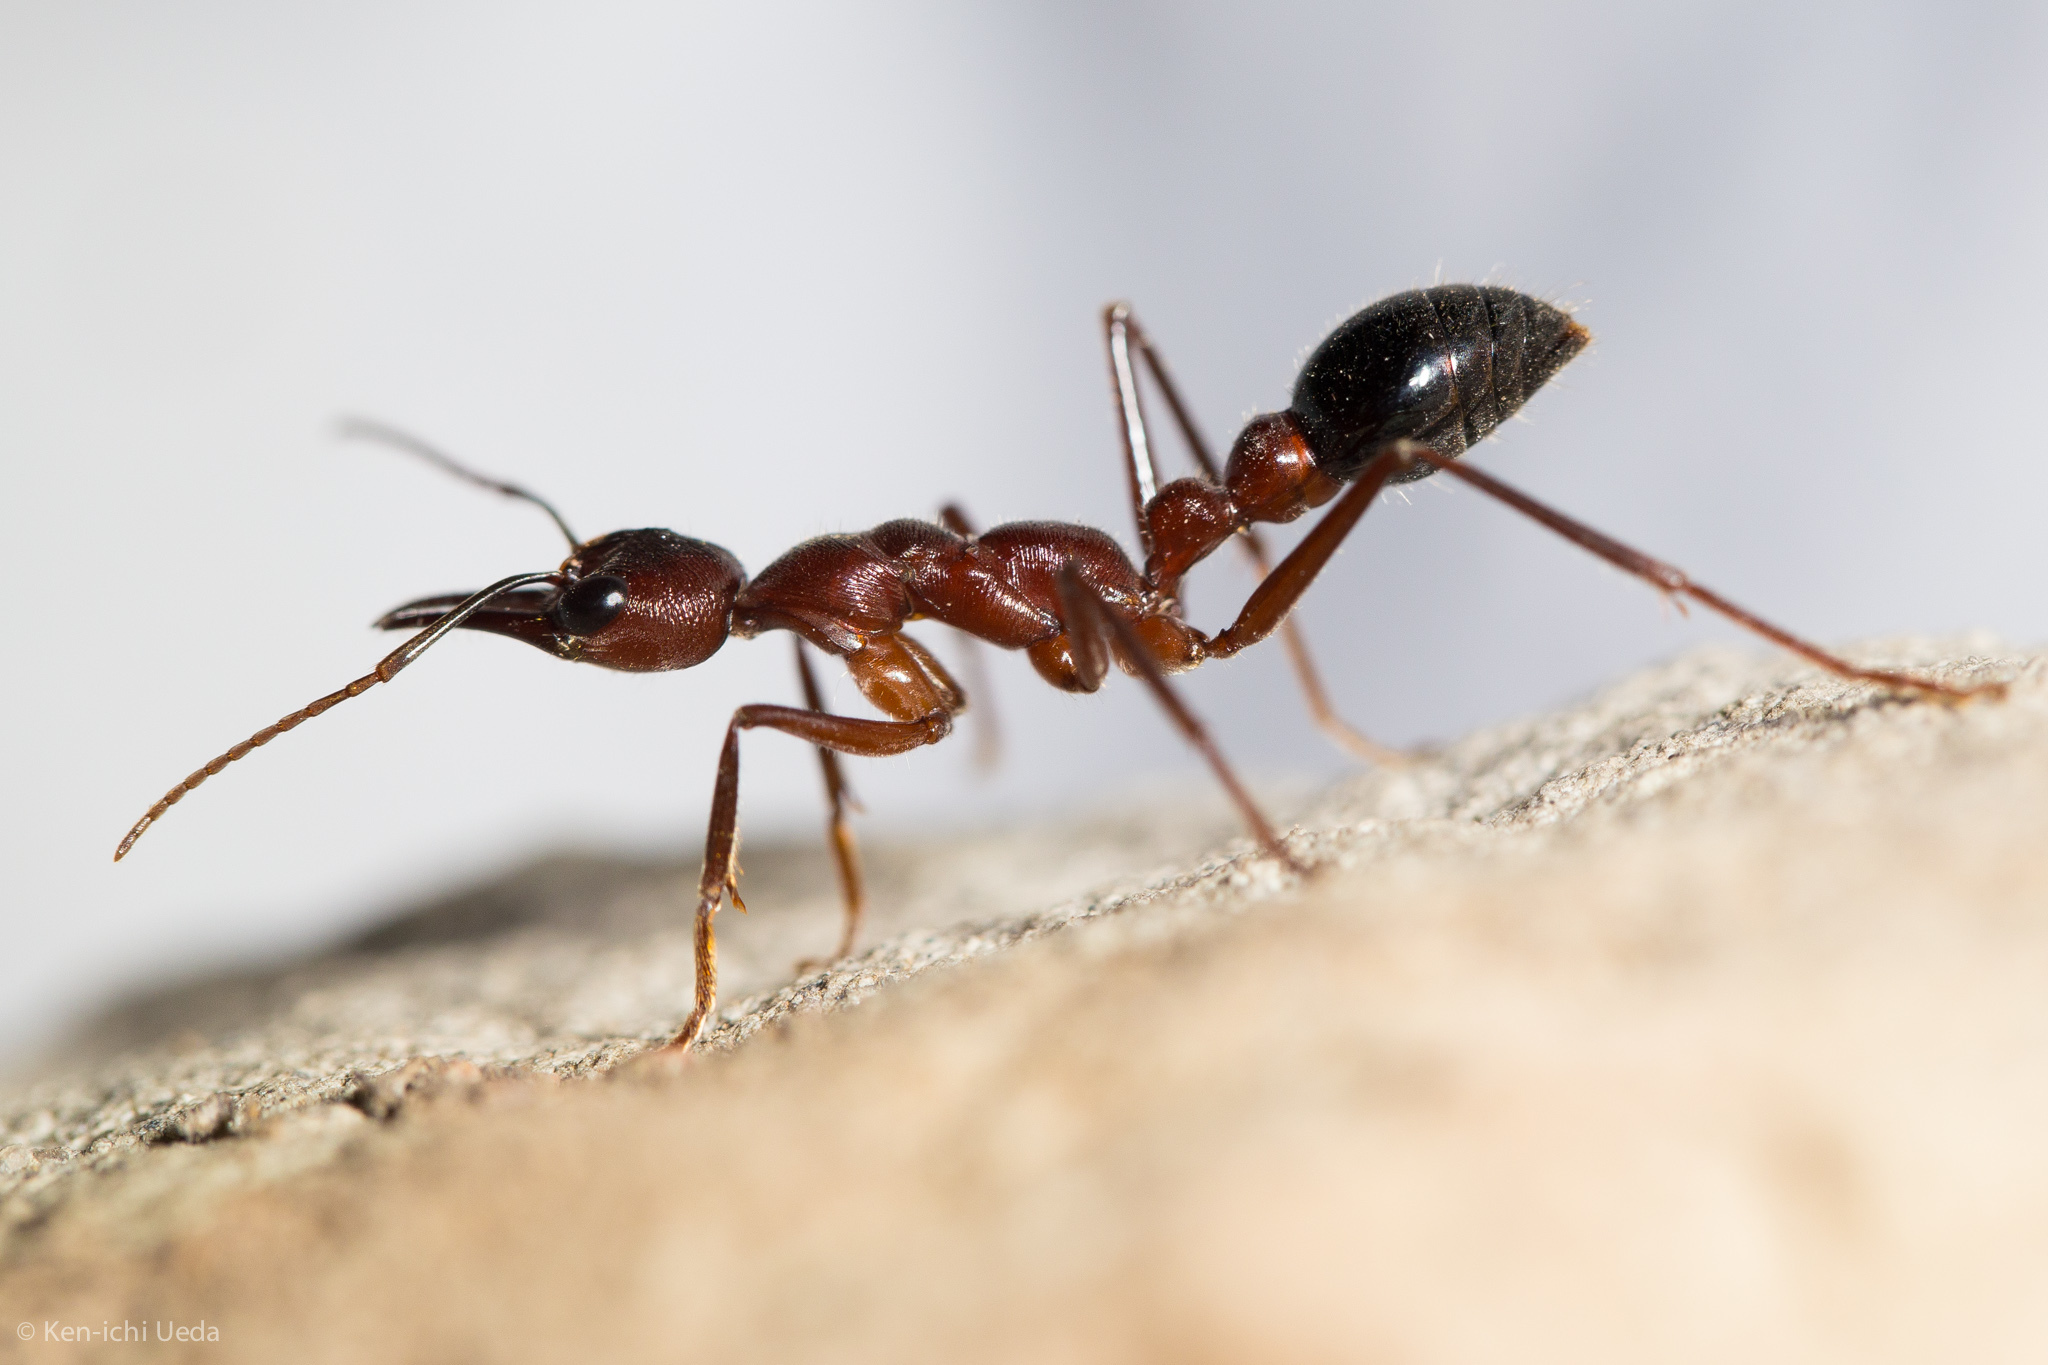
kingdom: Animalia
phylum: Arthropoda
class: Insecta
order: Hymenoptera
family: Formicidae
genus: Myrmecia
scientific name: Myrmecia forficata
